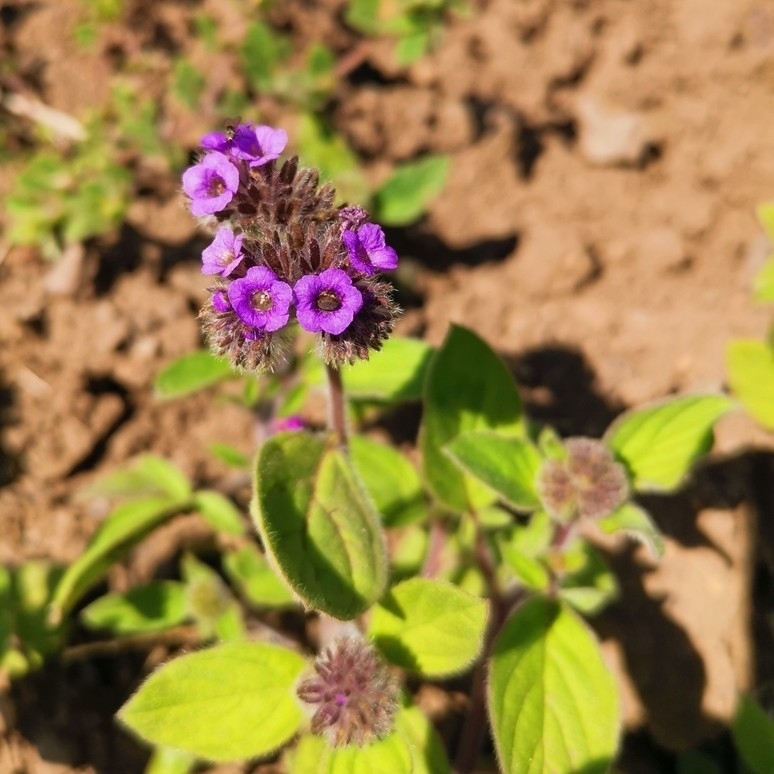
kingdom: Plantae
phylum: Tracheophyta
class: Magnoliopsida
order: Boraginales
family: Hydrophyllaceae
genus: Phacelia
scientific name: Phacelia brachyantha
